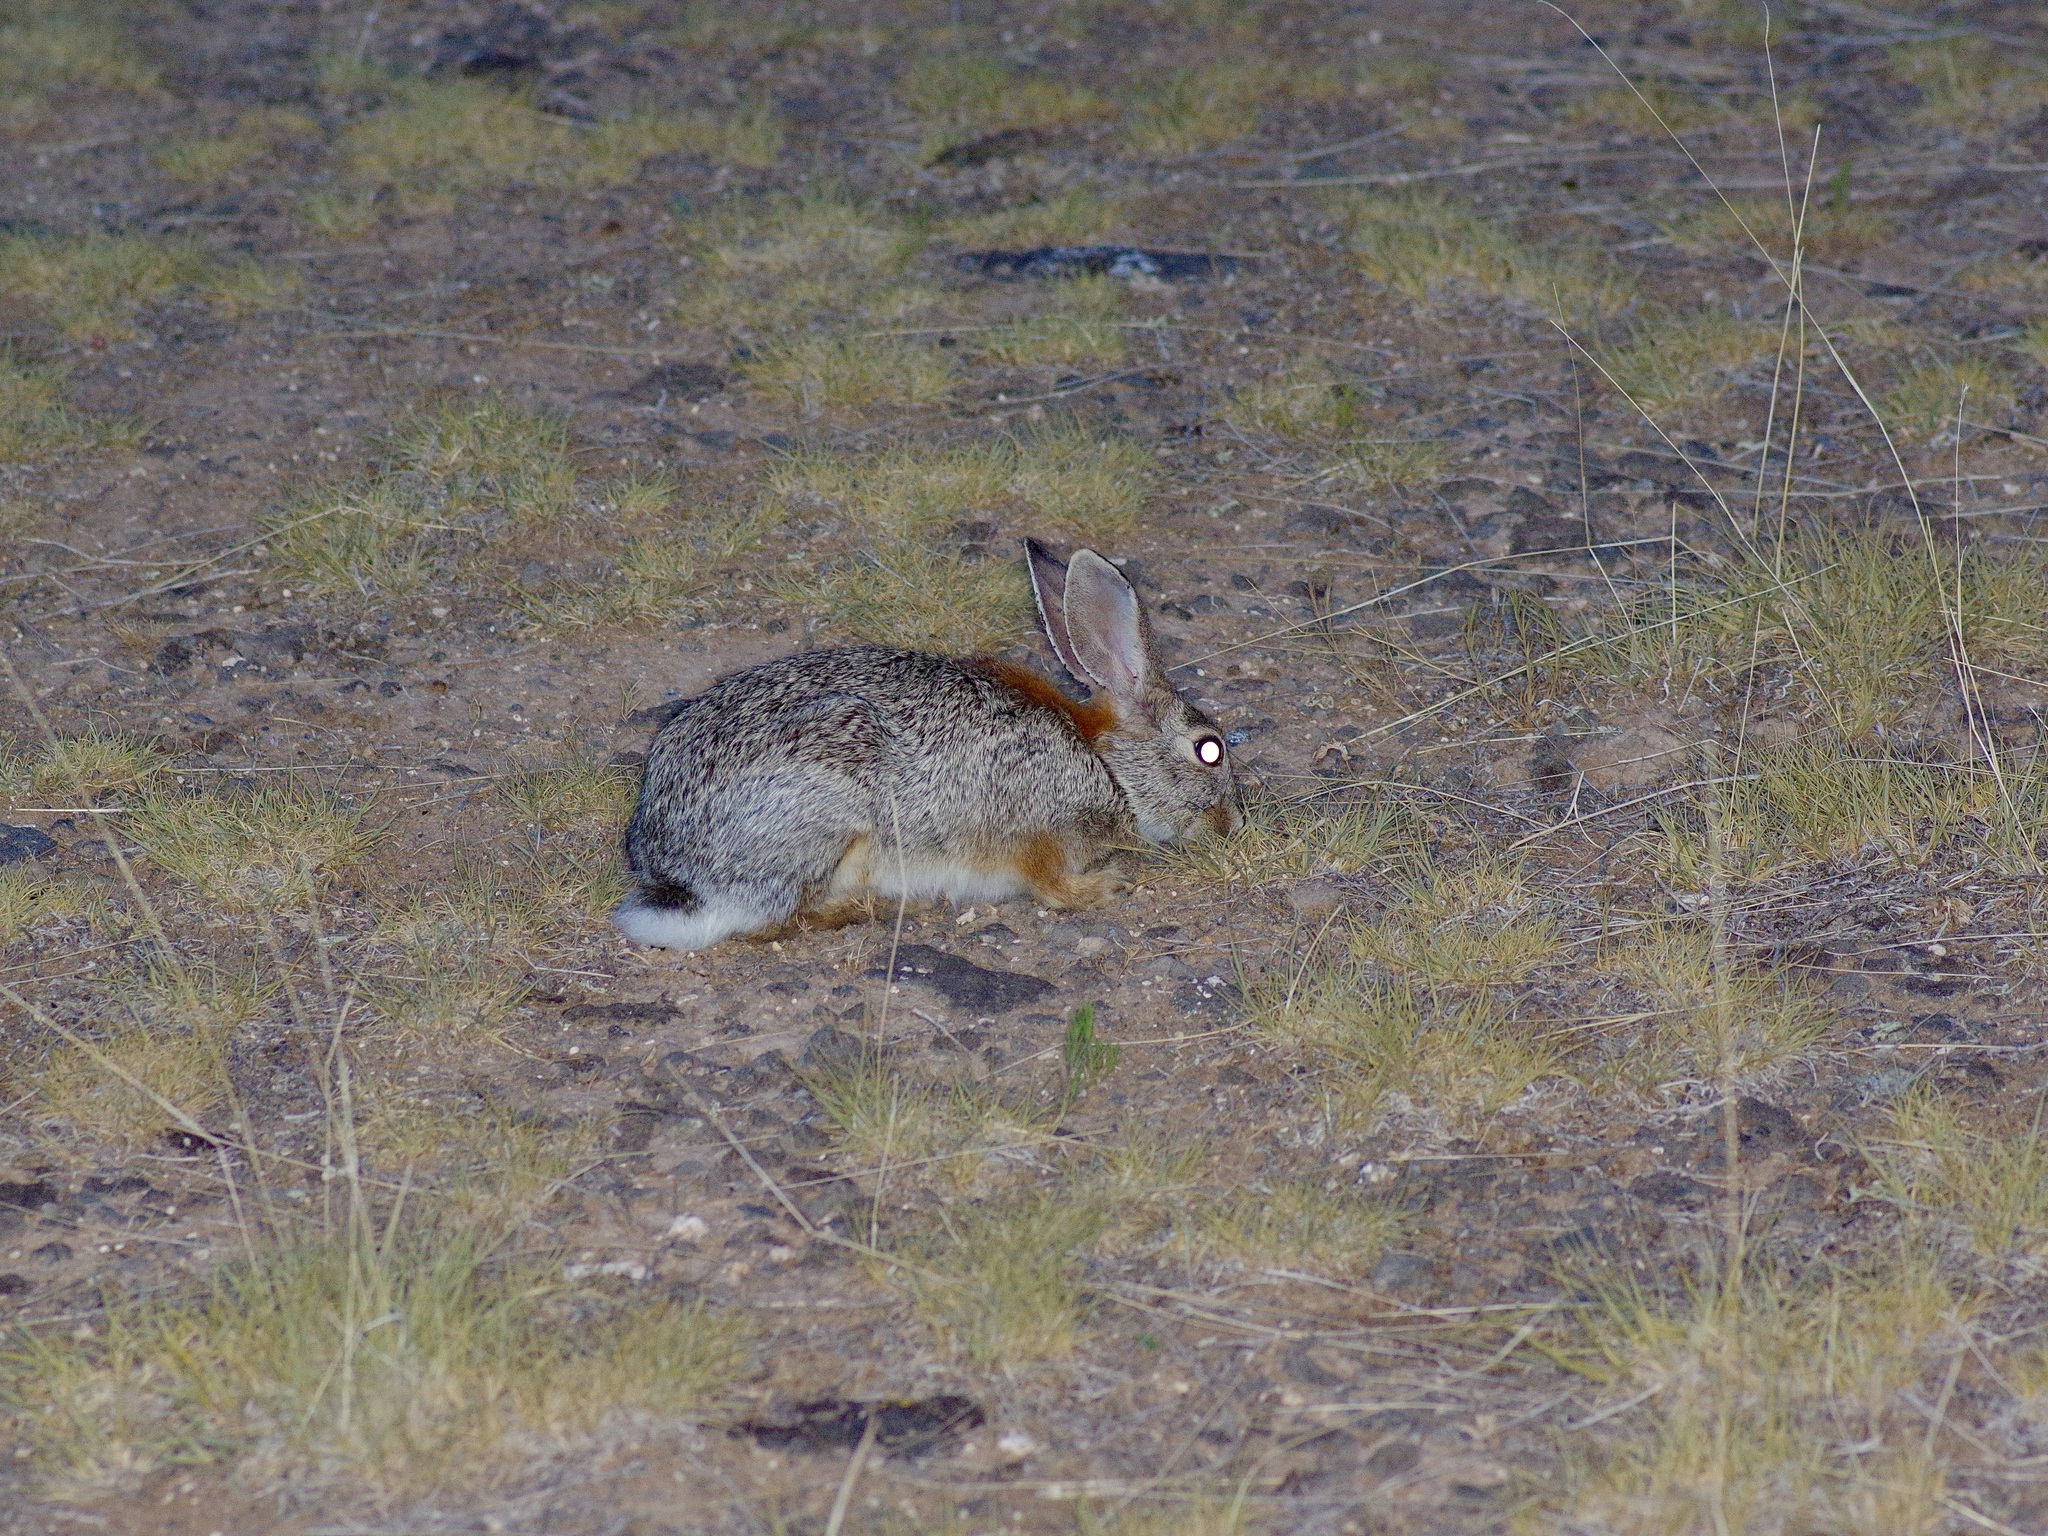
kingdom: Animalia
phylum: Chordata
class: Mammalia
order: Lagomorpha
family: Leporidae
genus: Sylvilagus
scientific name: Sylvilagus audubonii
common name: Desert cottontail
